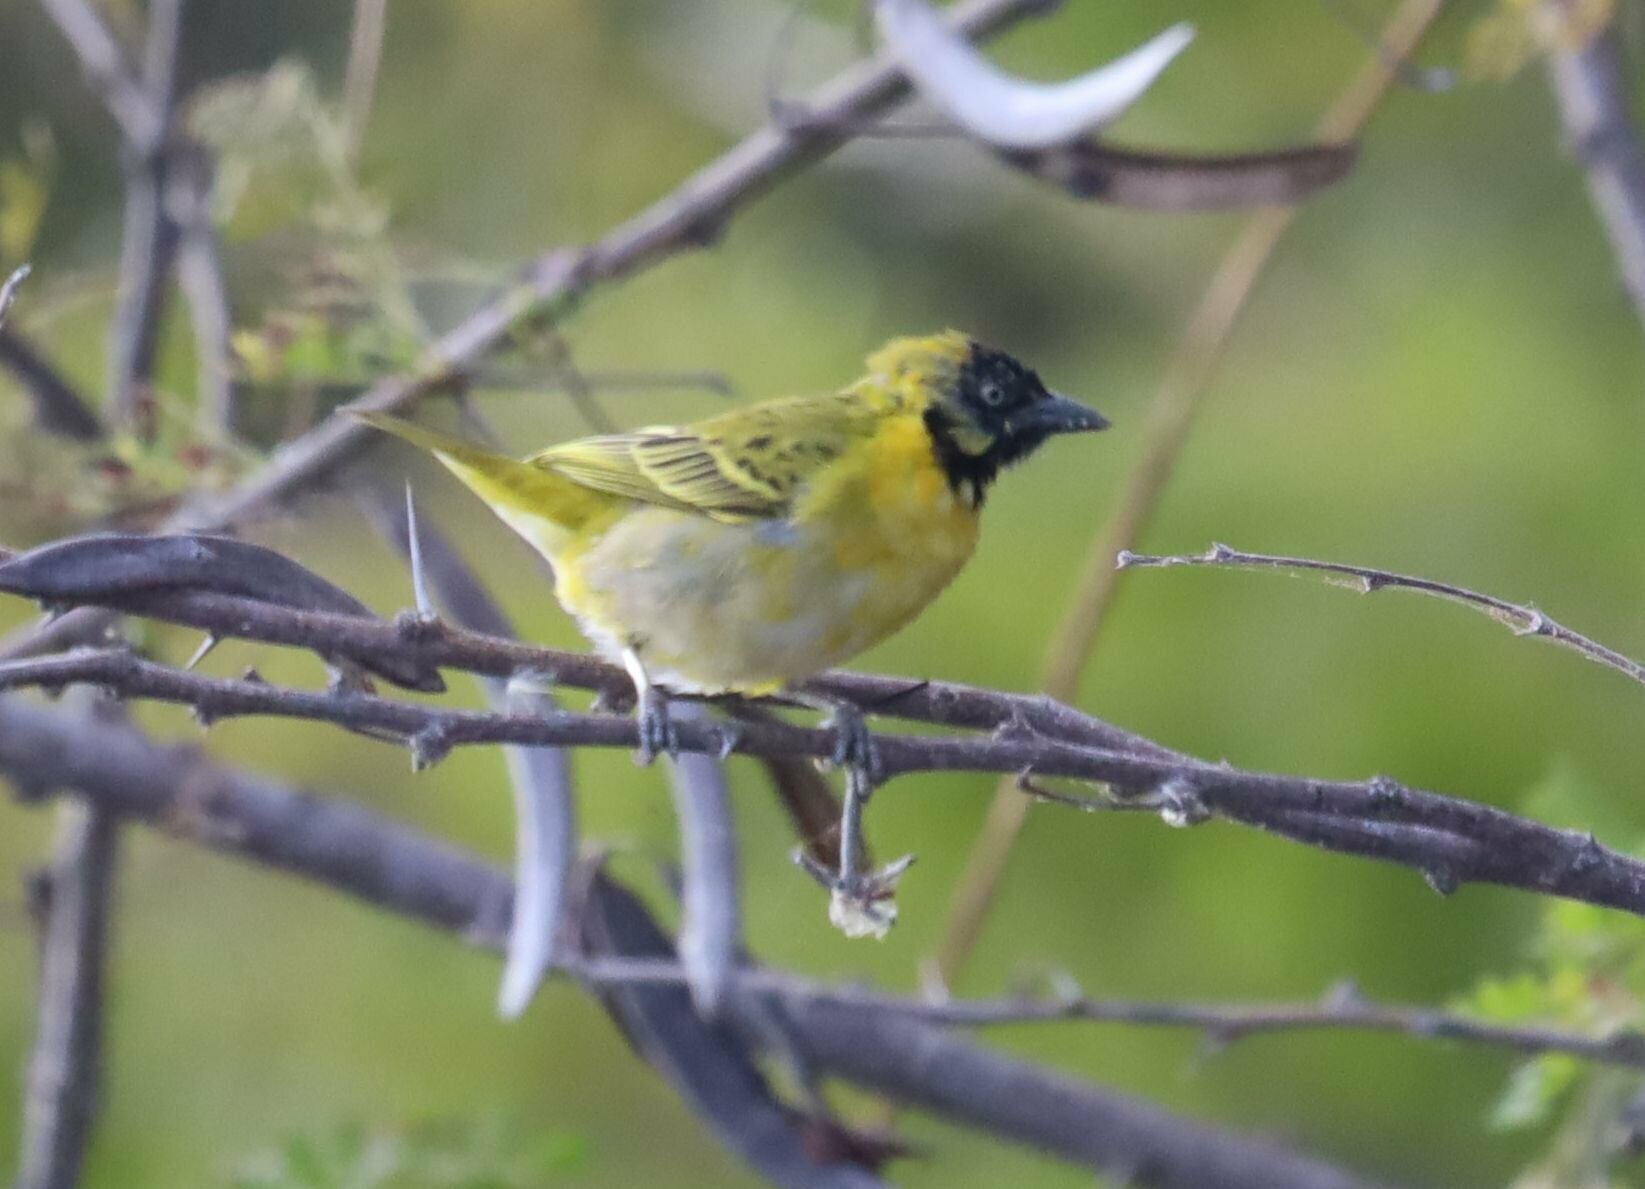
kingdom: Animalia
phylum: Chordata
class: Aves
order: Passeriformes
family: Ploceidae
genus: Ploceus
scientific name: Ploceus intermedius
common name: Lesser masked weaver
